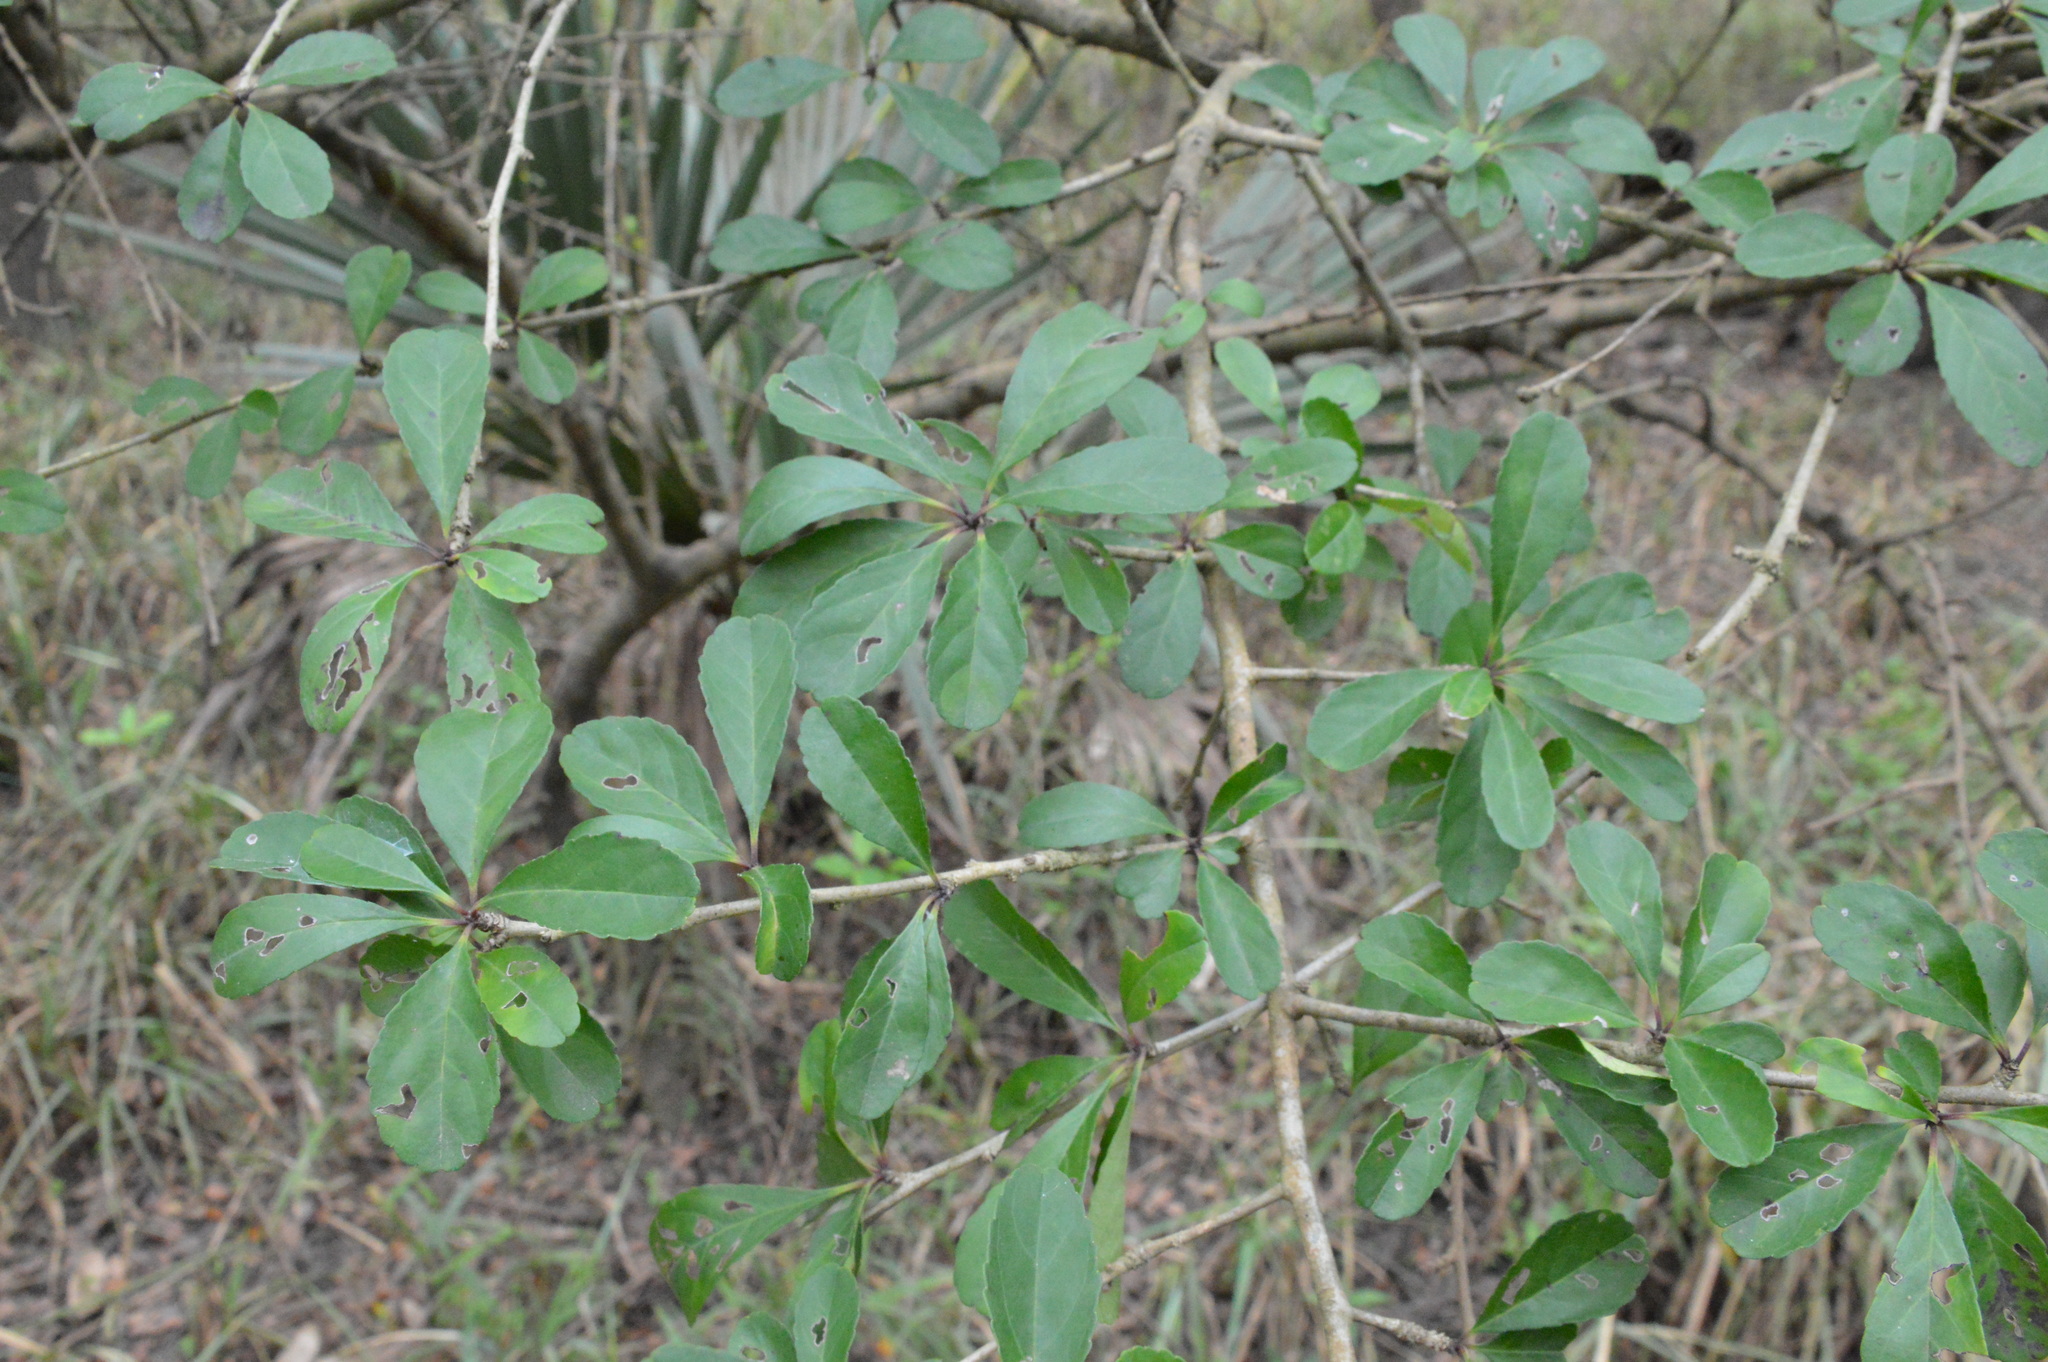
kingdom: Plantae
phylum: Tracheophyta
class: Magnoliopsida
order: Aquifoliales
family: Aquifoliaceae
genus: Ilex
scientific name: Ilex decidua
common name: Possum-haw
